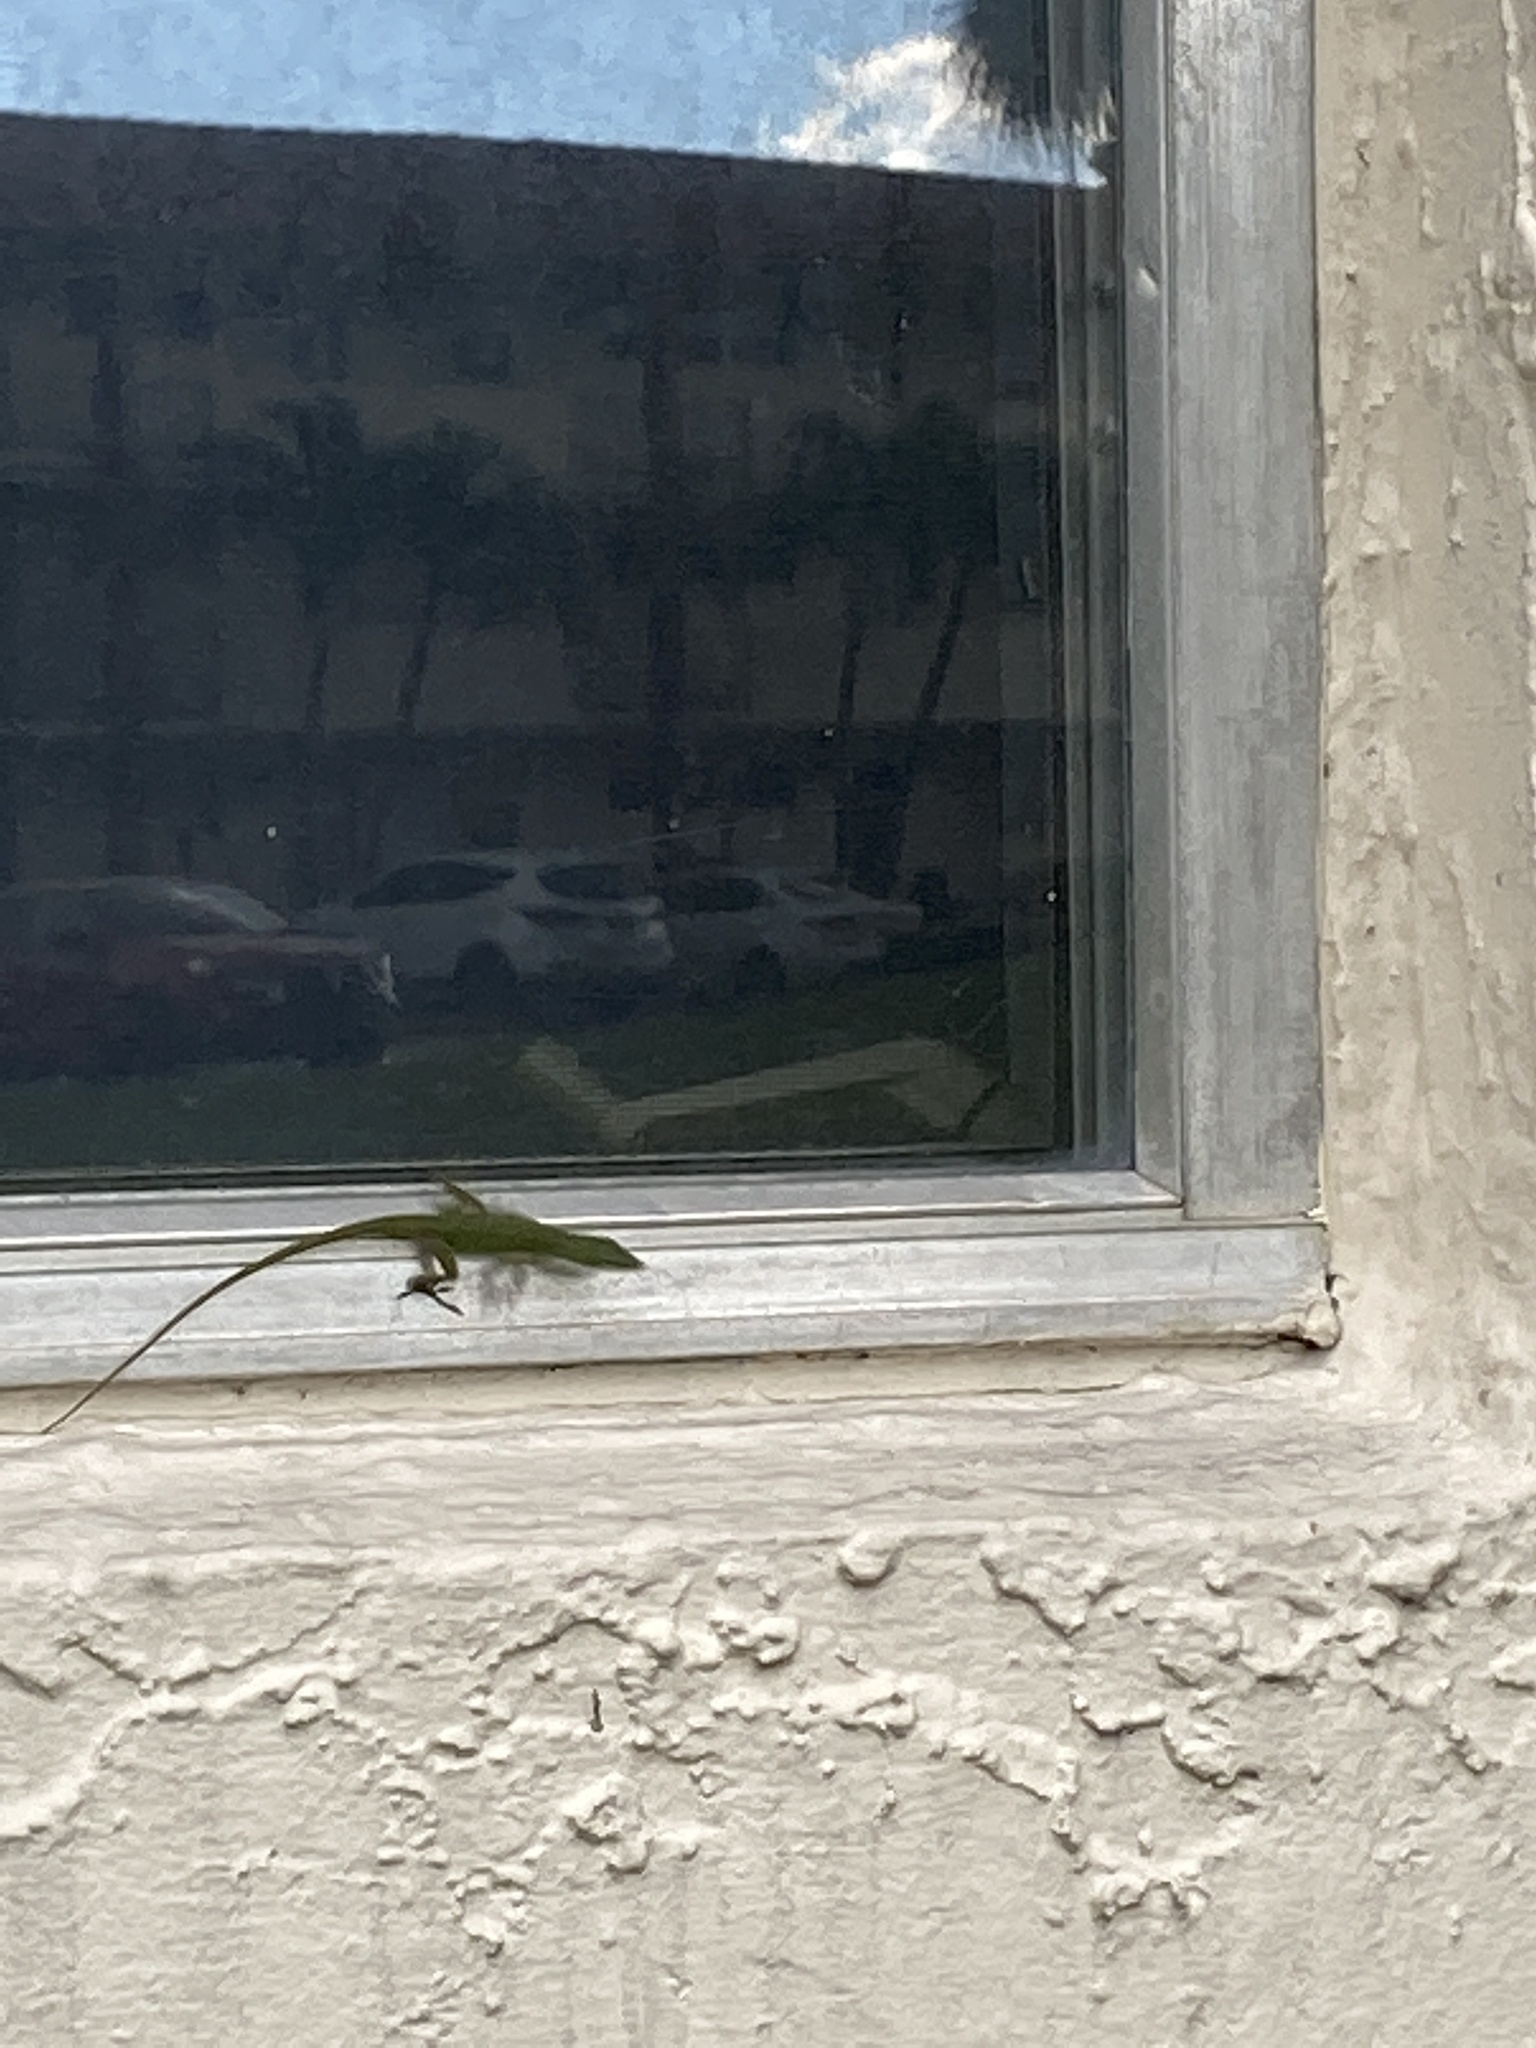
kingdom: Animalia
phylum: Chordata
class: Squamata
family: Dactyloidae
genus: Anolis
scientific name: Anolis carolinensis
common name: Green anole
